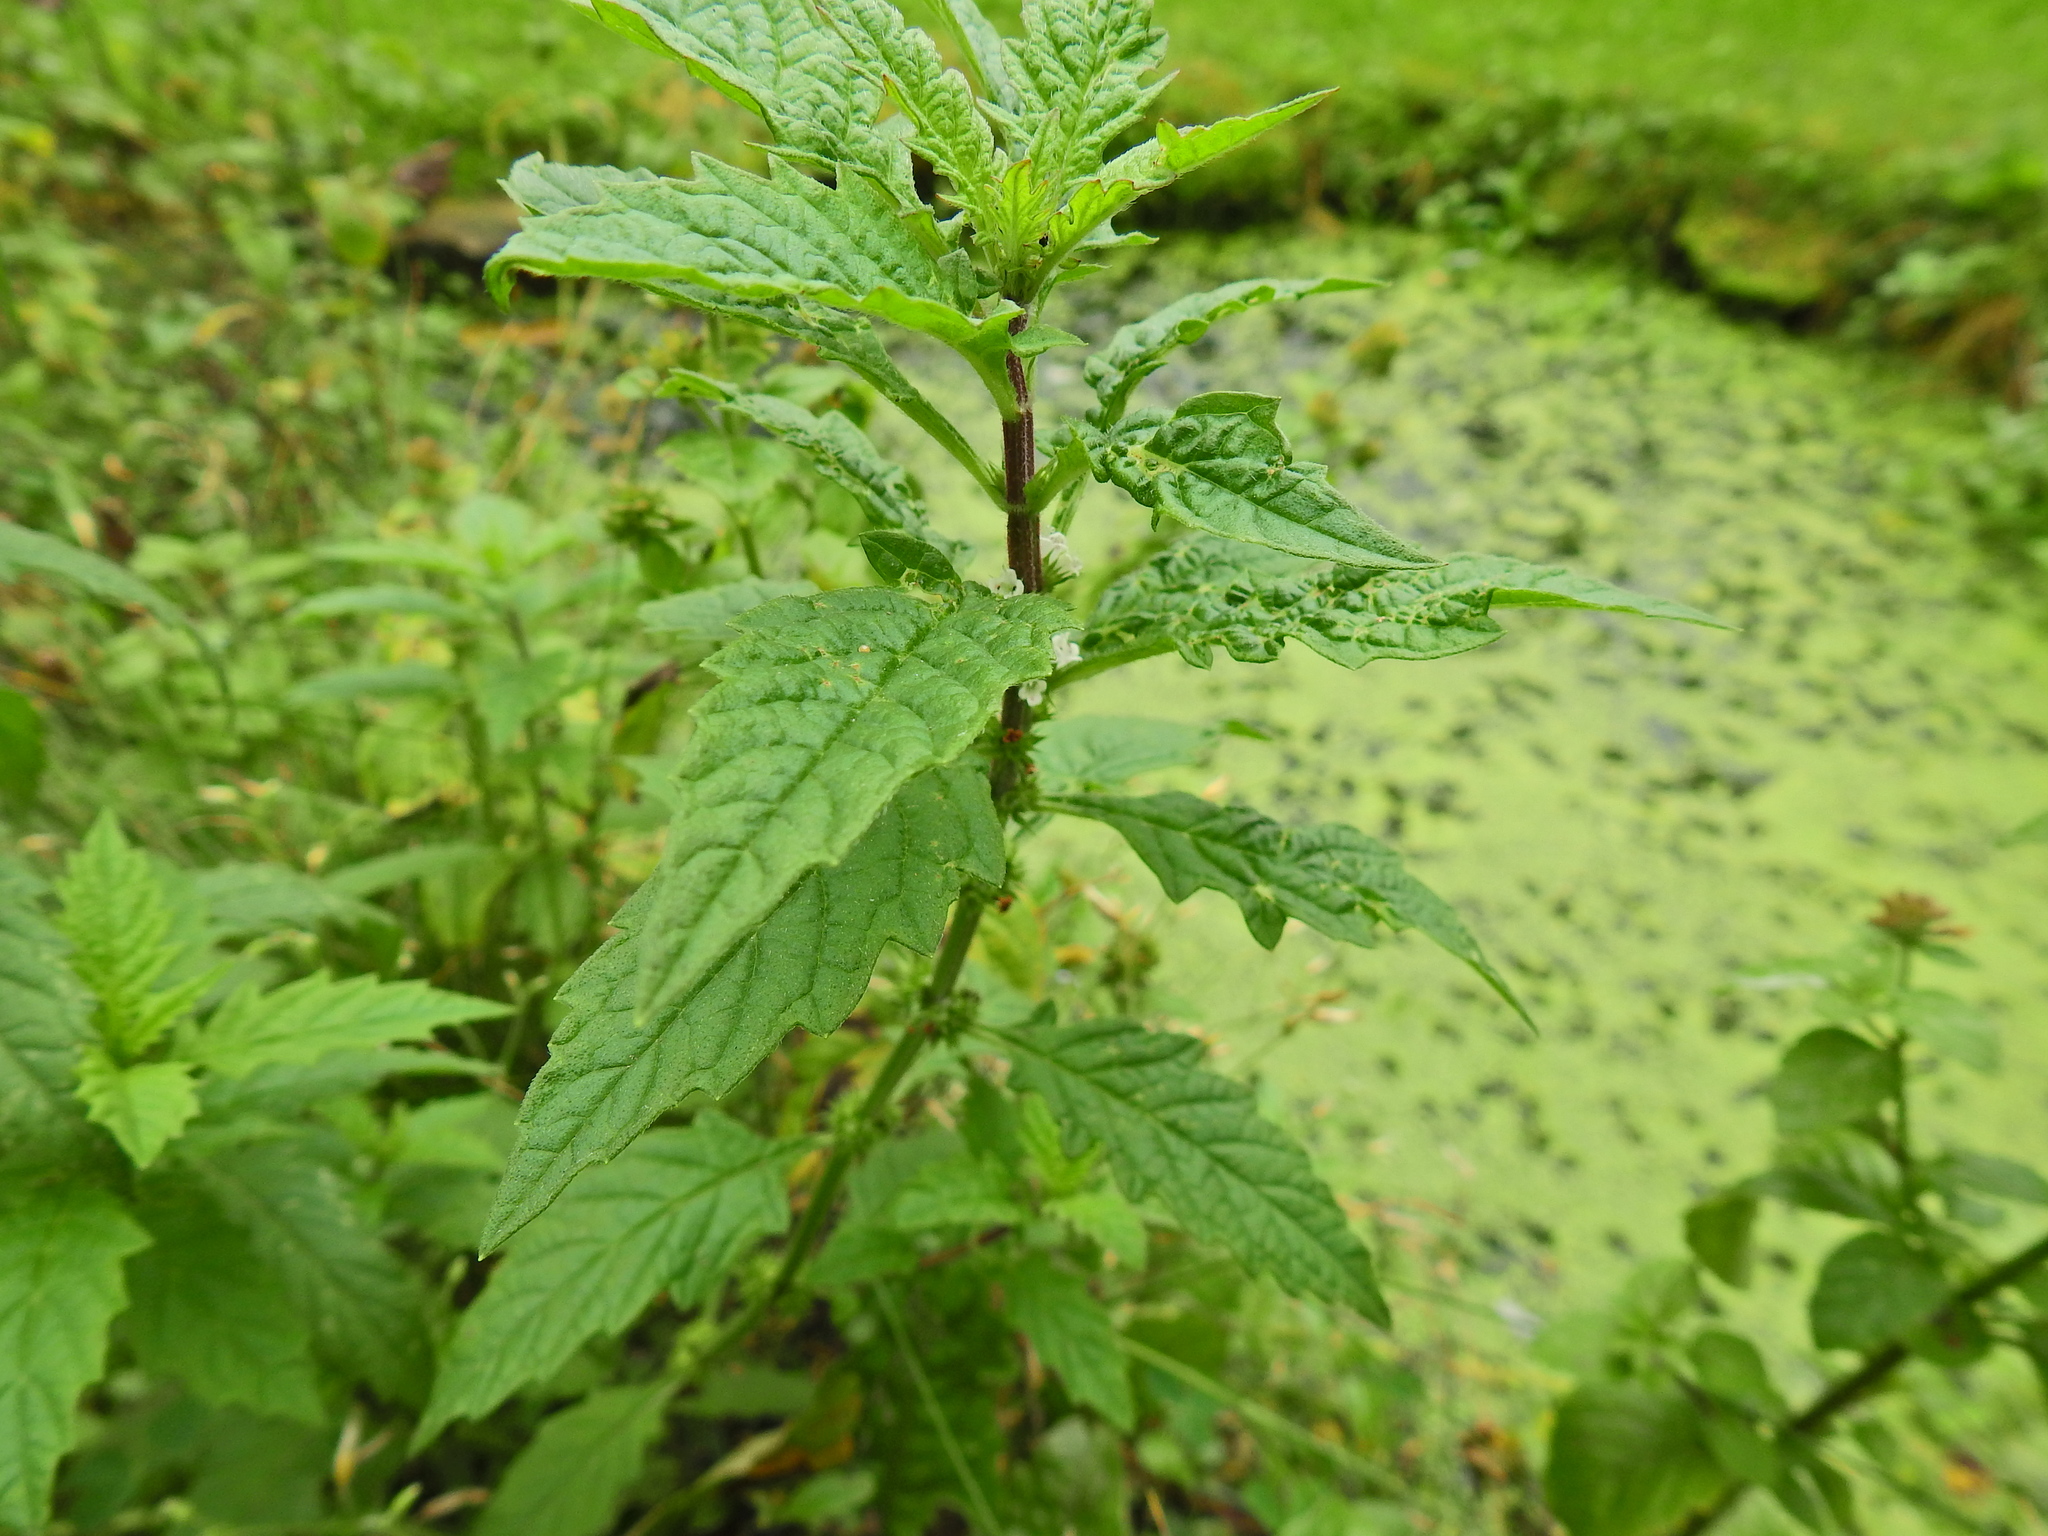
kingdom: Plantae
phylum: Tracheophyta
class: Magnoliopsida
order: Lamiales
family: Lamiaceae
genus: Lycopus
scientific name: Lycopus europaeus
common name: European bugleweed
